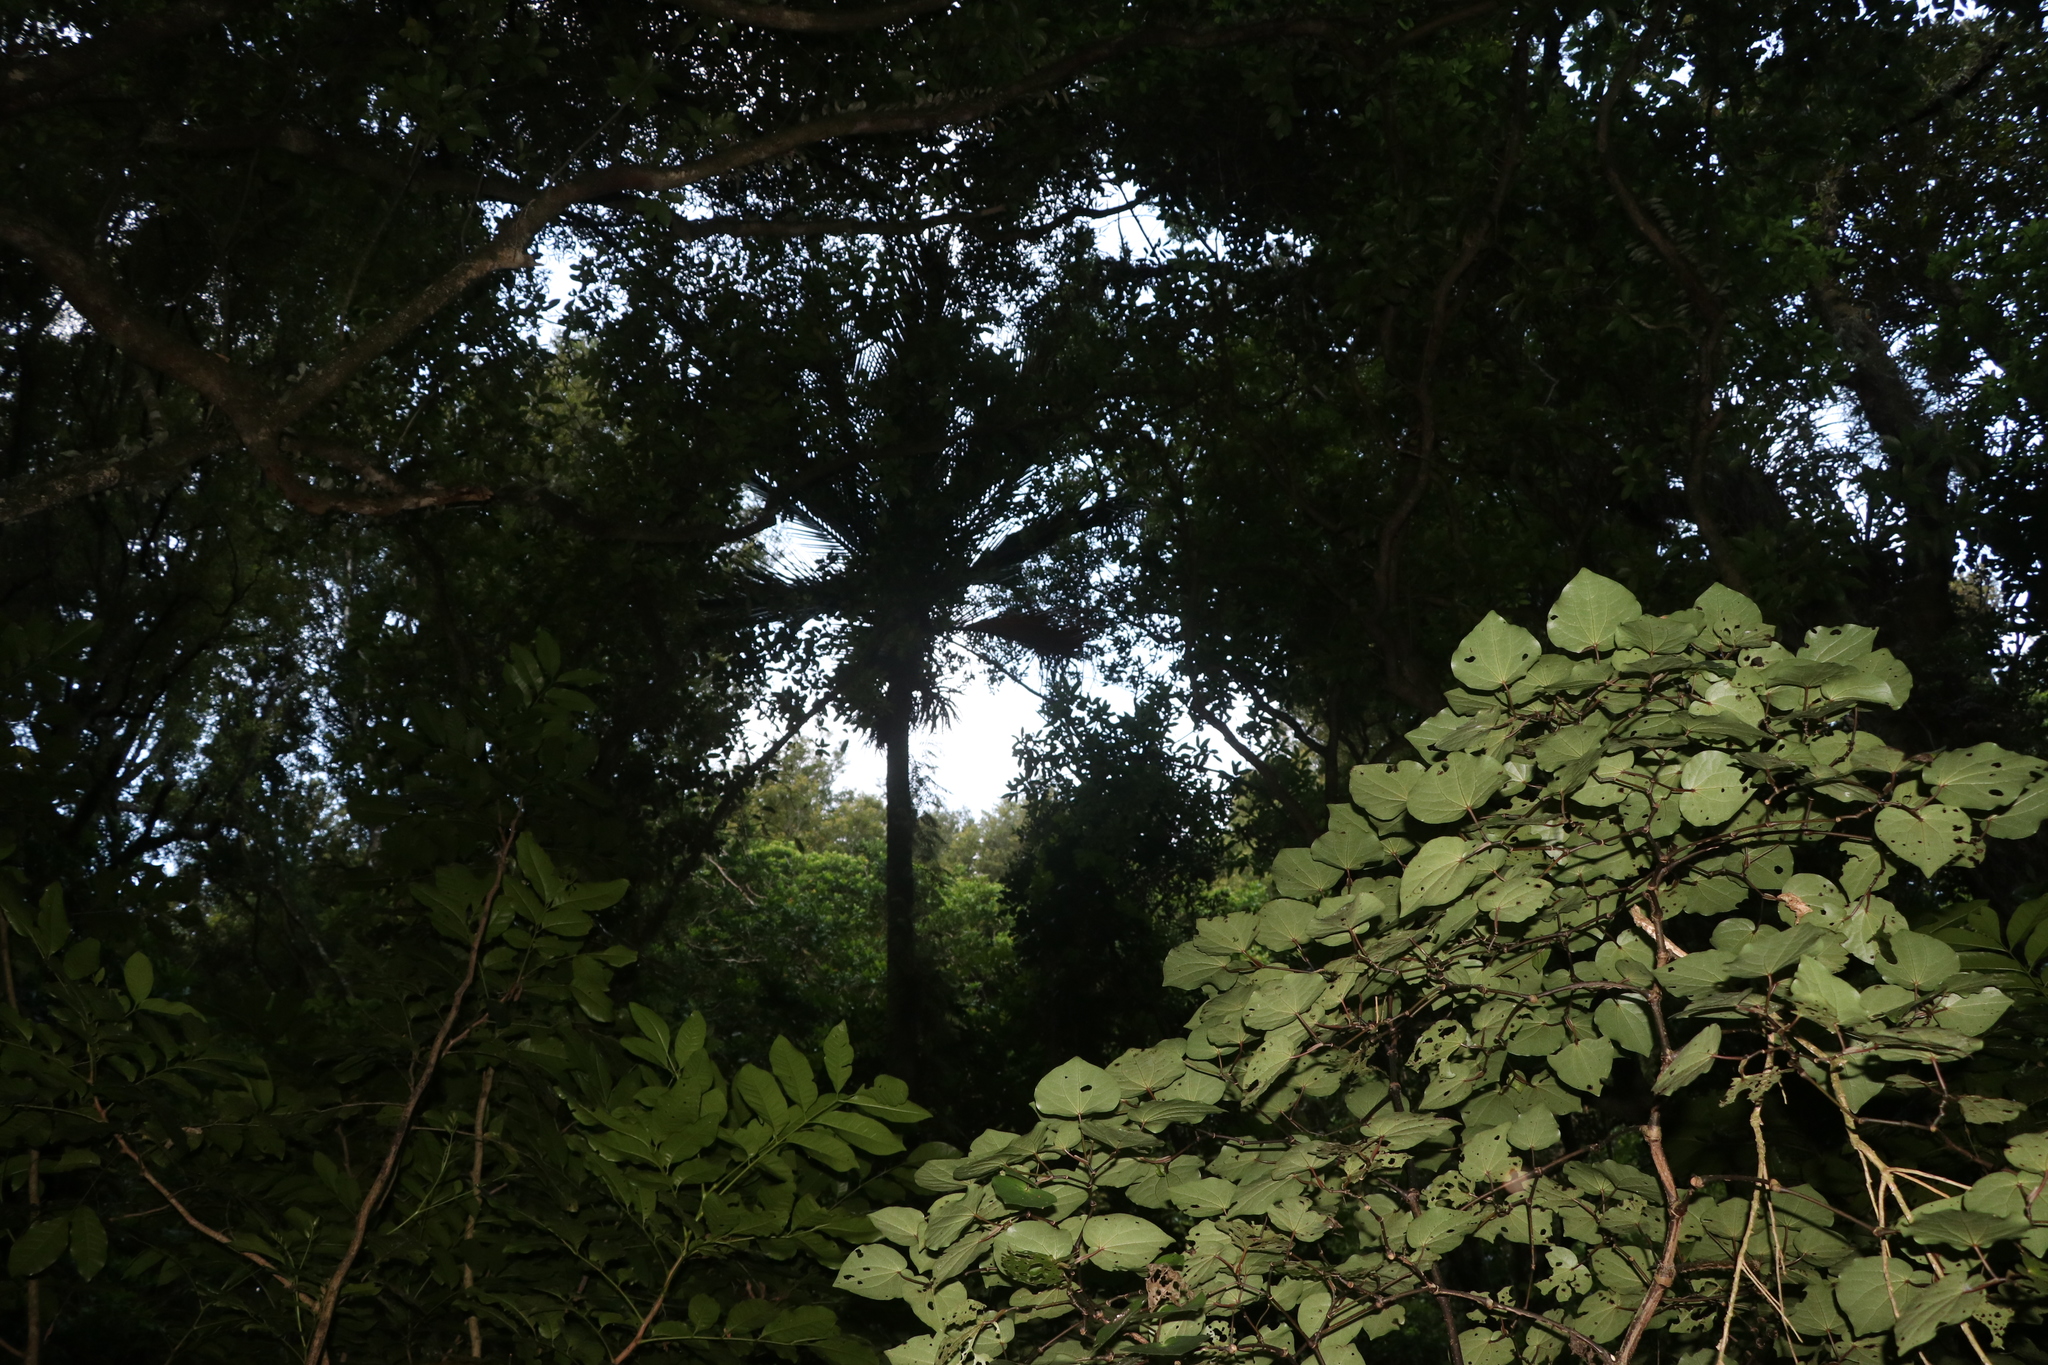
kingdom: Plantae
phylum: Tracheophyta
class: Liliopsida
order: Arecales
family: Arecaceae
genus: Rhopalostylis
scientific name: Rhopalostylis sapida
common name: Feather-duster palm
